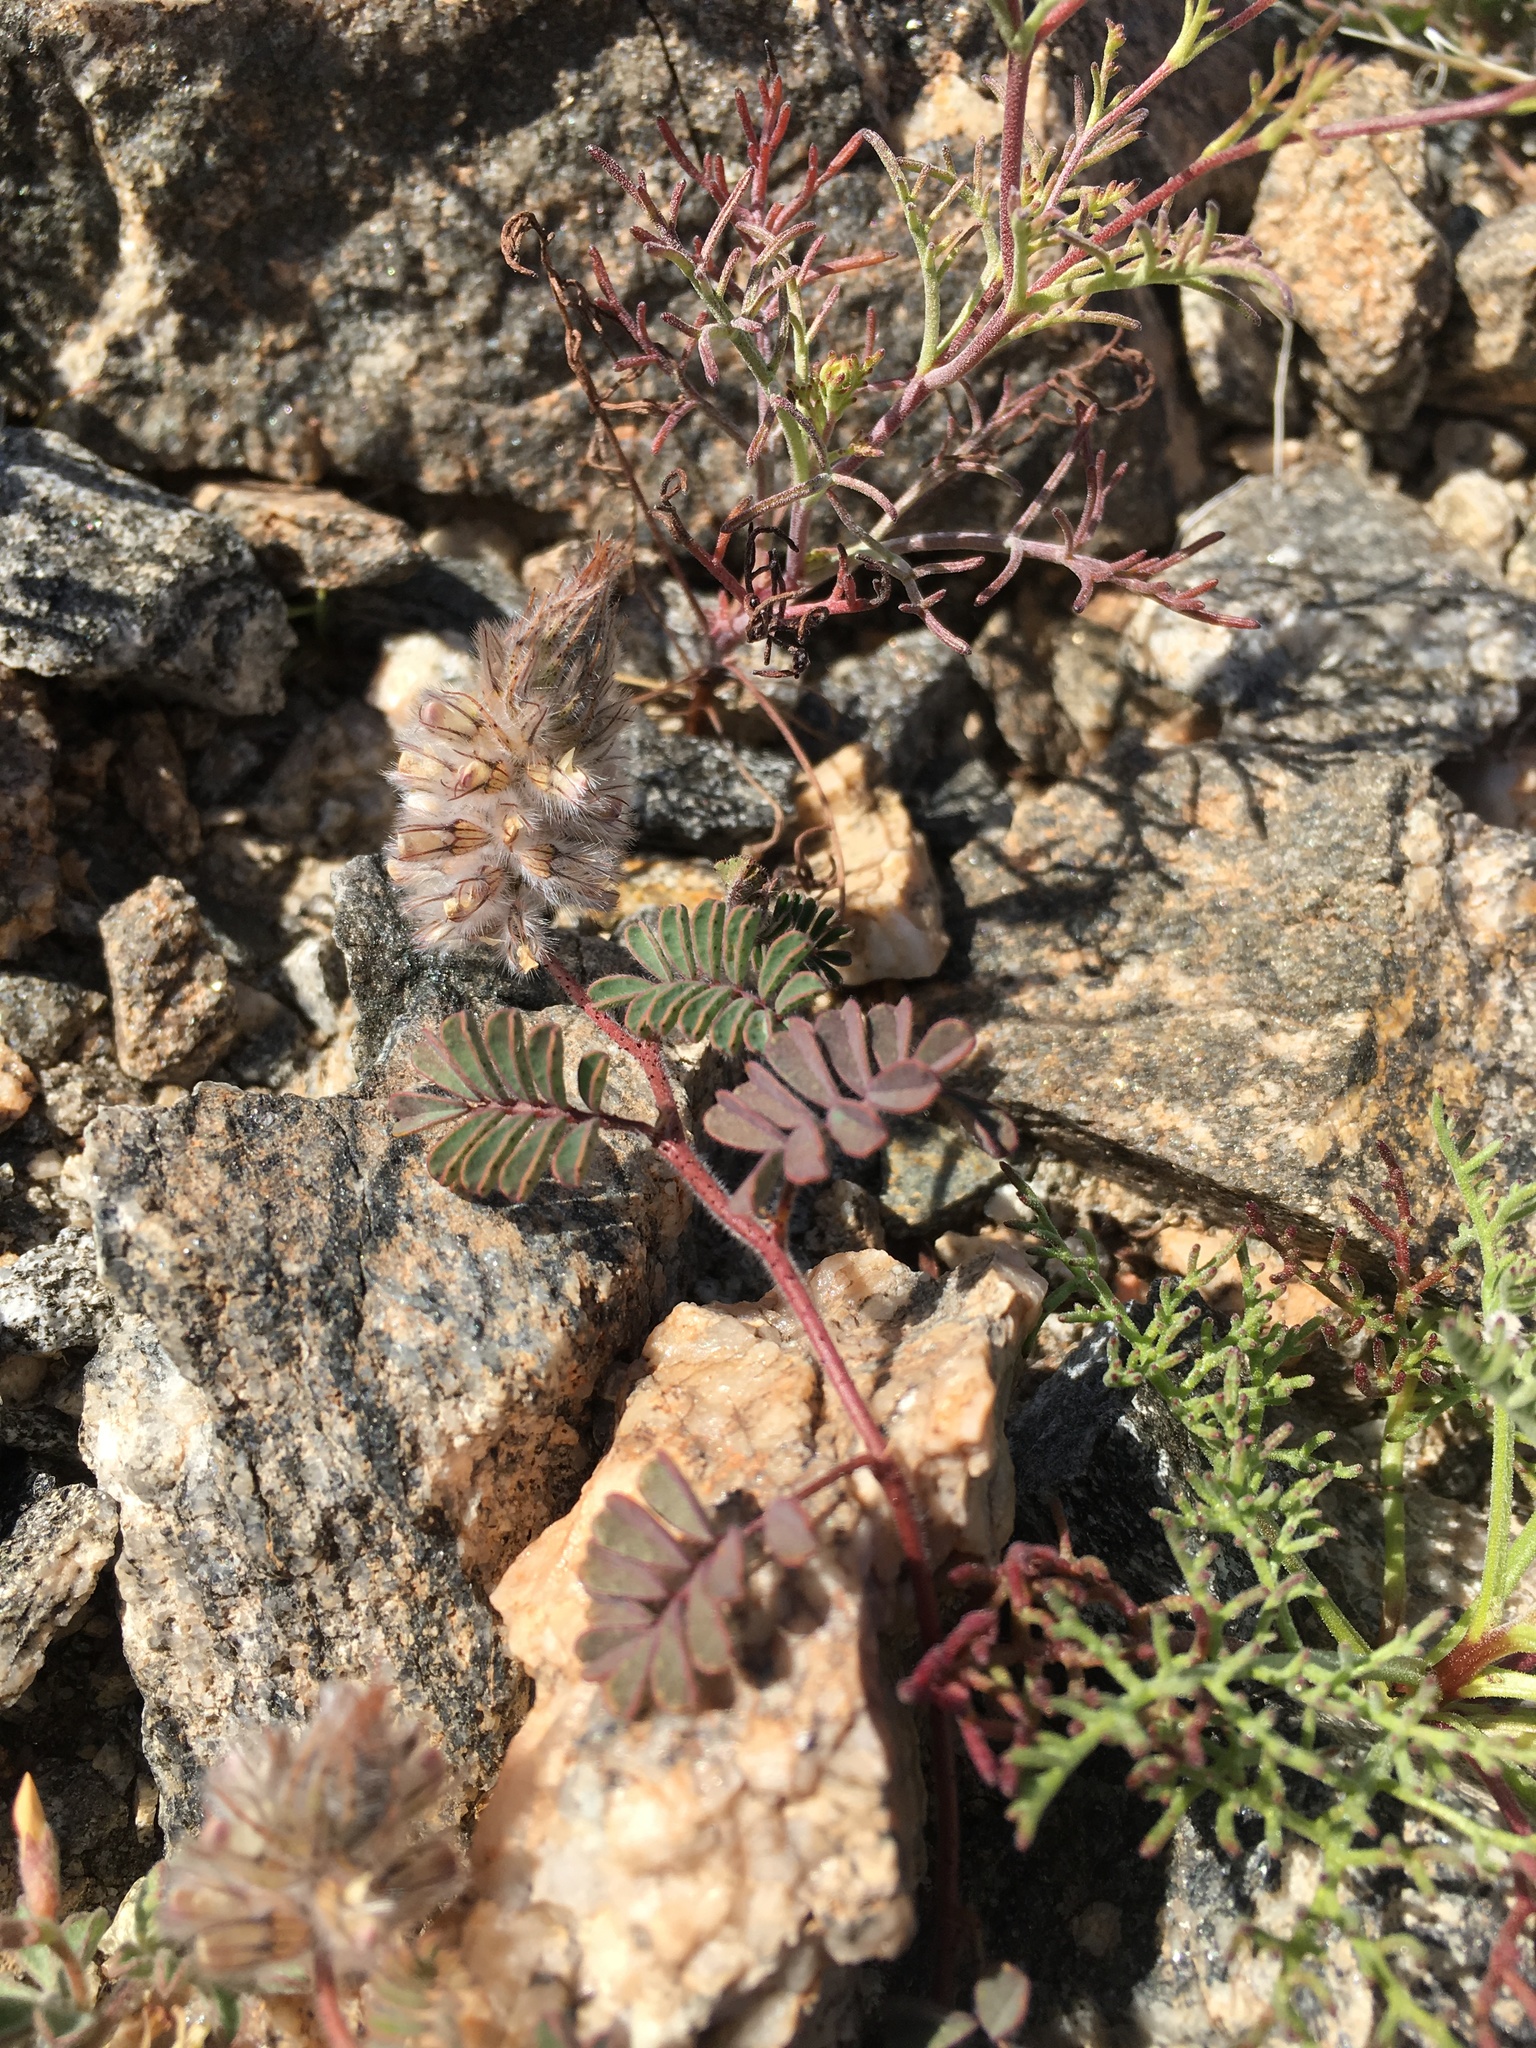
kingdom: Plantae
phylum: Tracheophyta
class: Magnoliopsida
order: Fabales
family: Fabaceae
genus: Dalea
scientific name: Dalea mollis
